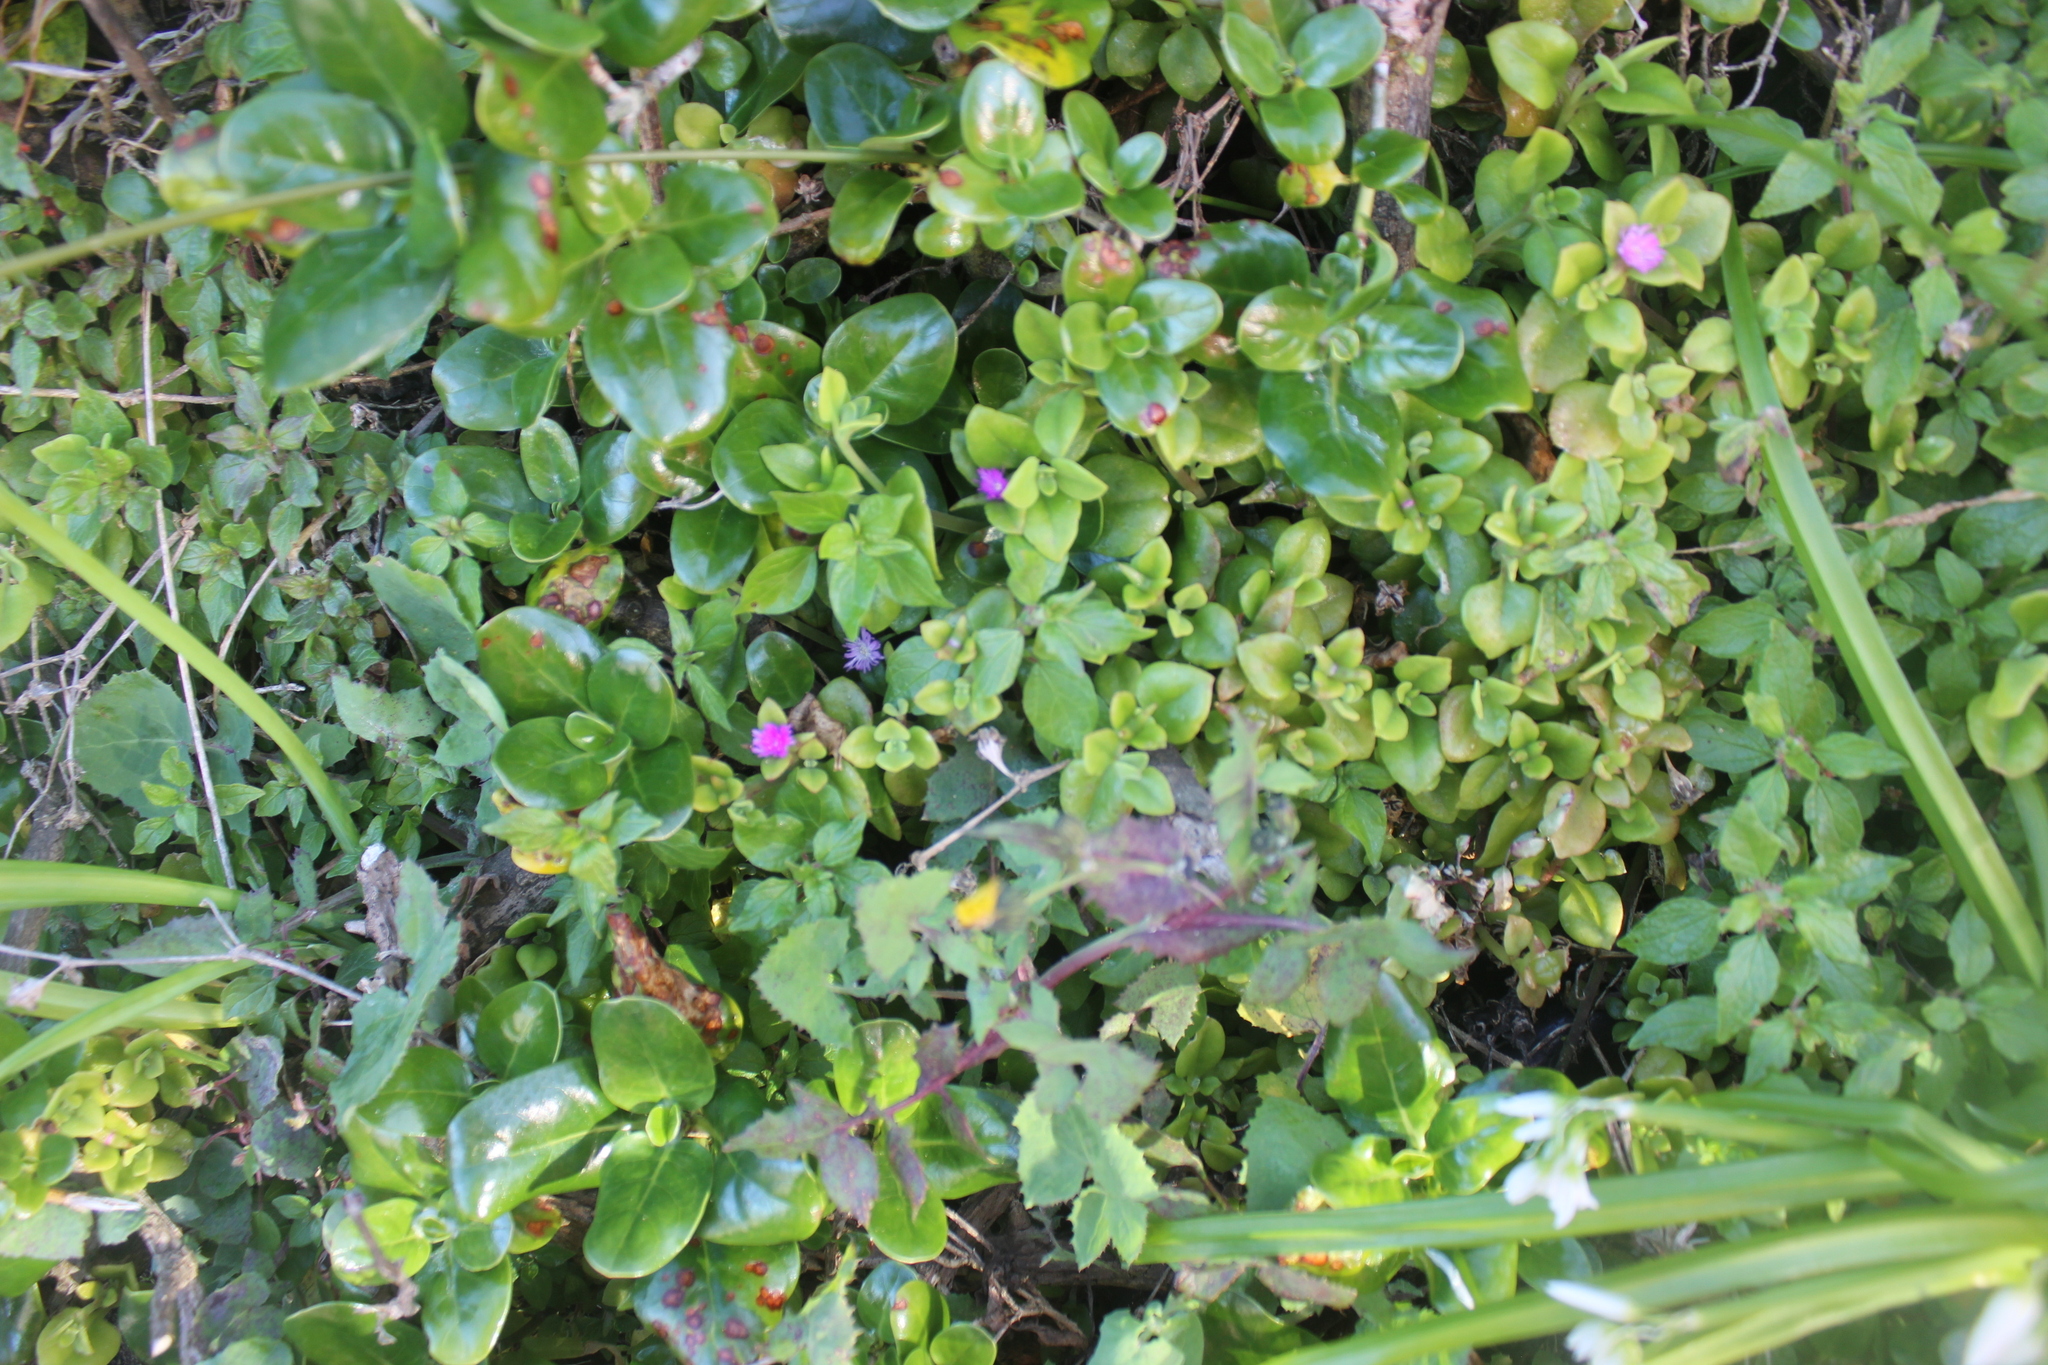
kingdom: Plantae
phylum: Tracheophyta
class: Magnoliopsida
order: Caryophyllales
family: Aizoaceae
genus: Mesembryanthemum
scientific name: Mesembryanthemum cordifolium
